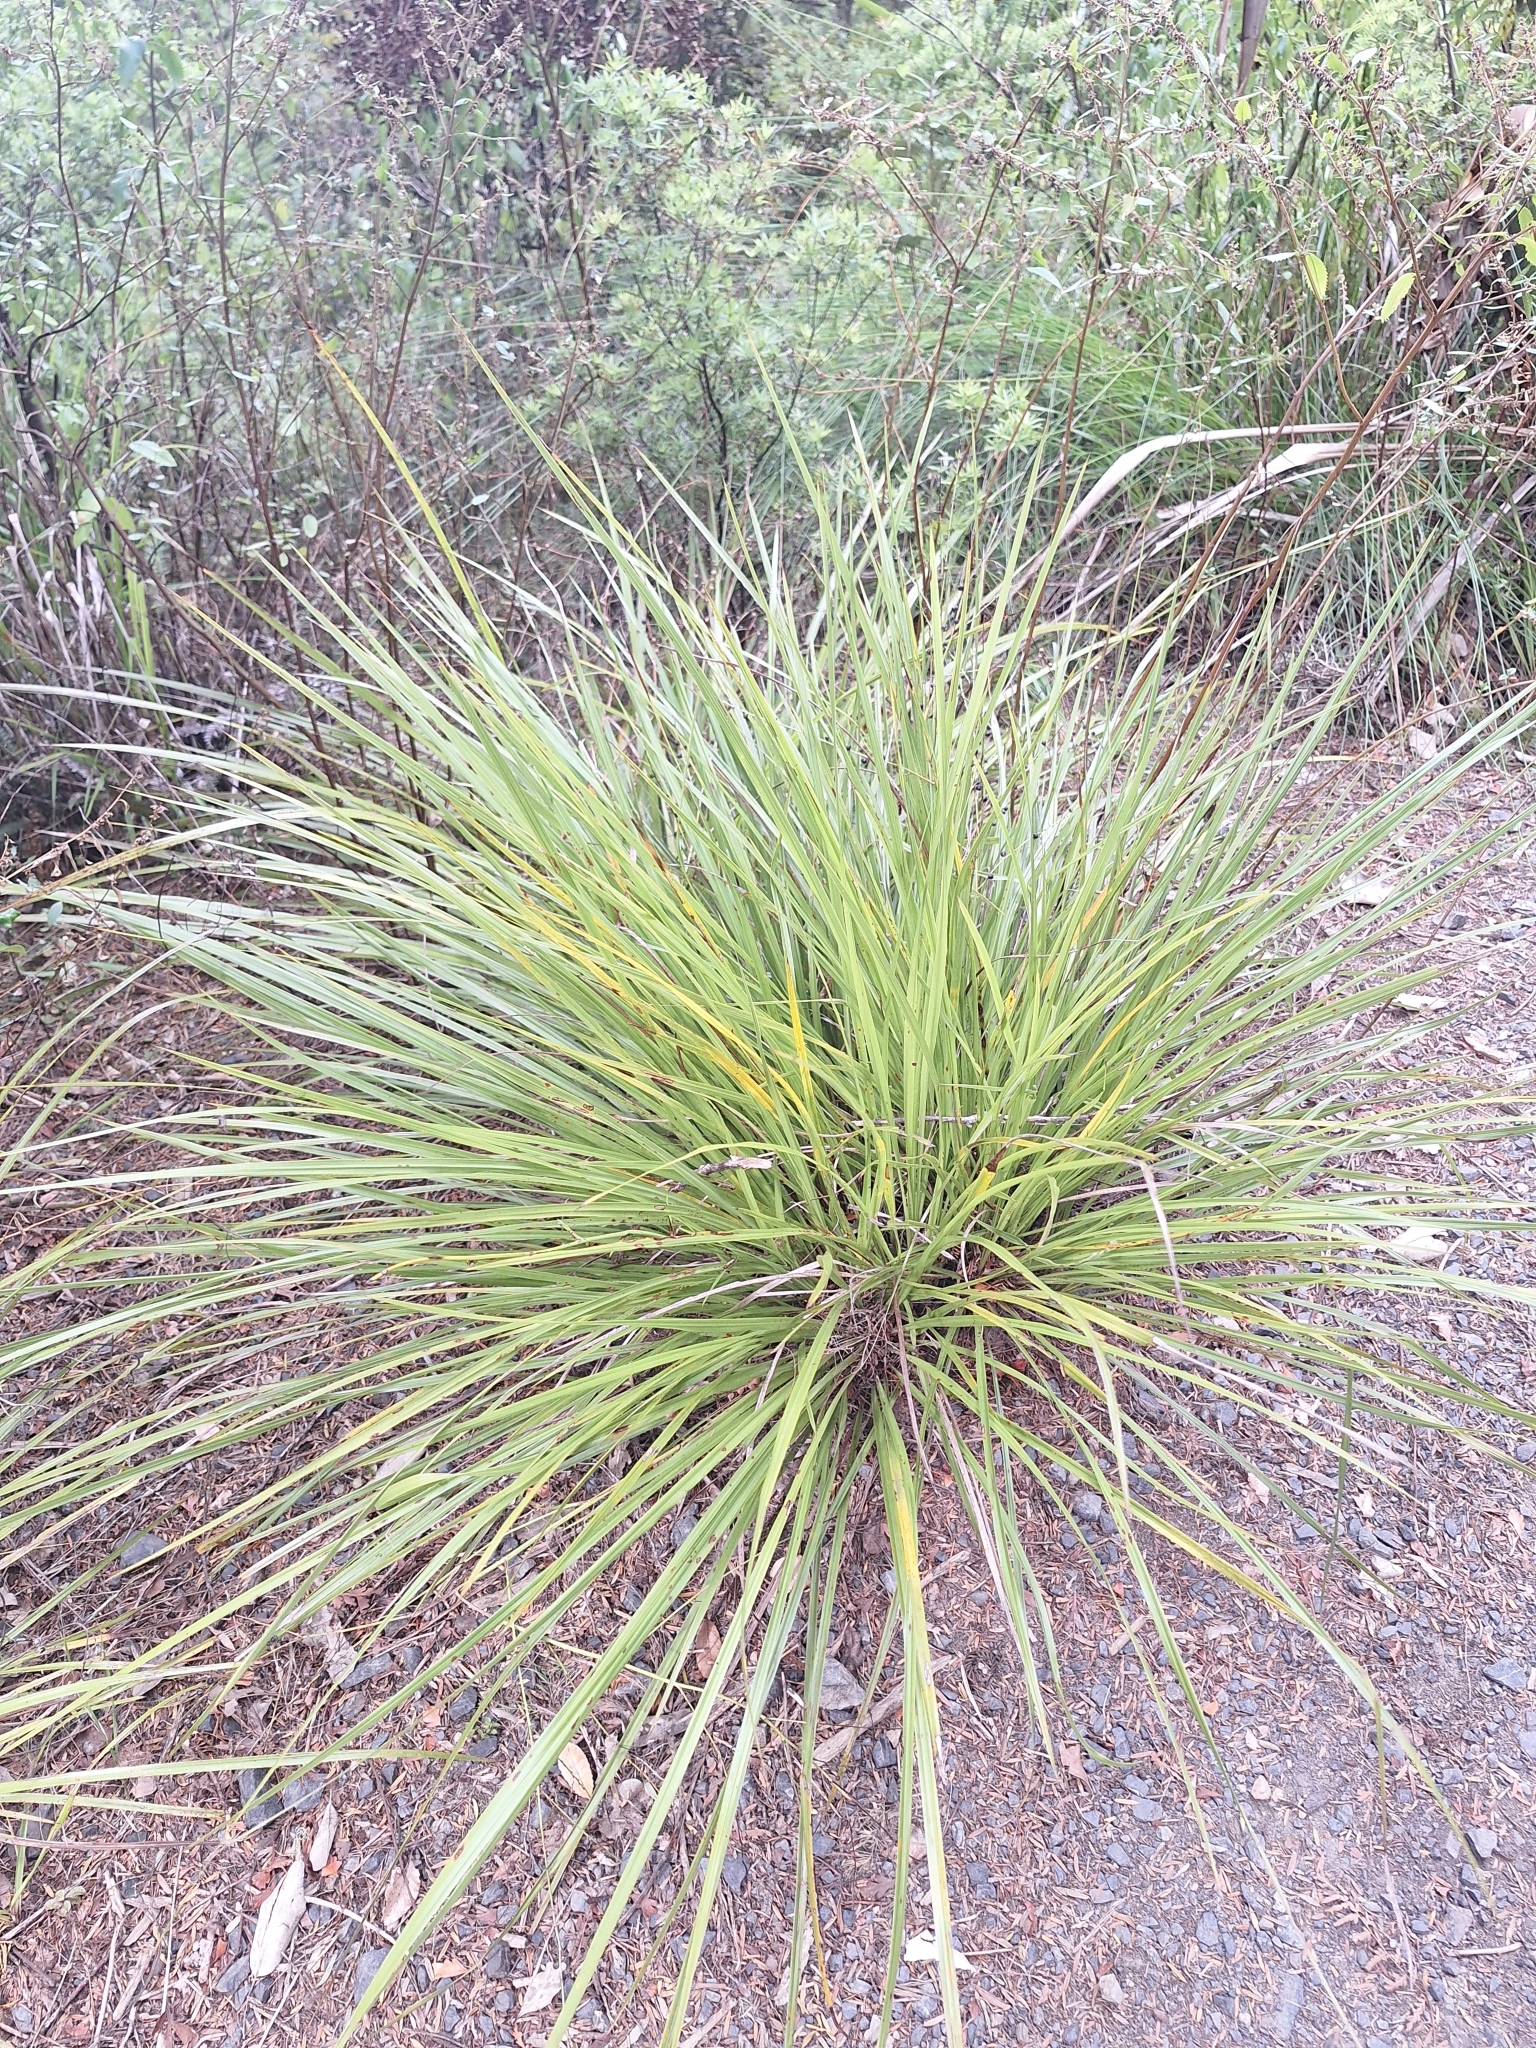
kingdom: Plantae
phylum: Tracheophyta
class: Liliopsida
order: Asparagales
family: Asparagaceae
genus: Cordyline
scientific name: Cordyline pumilio
